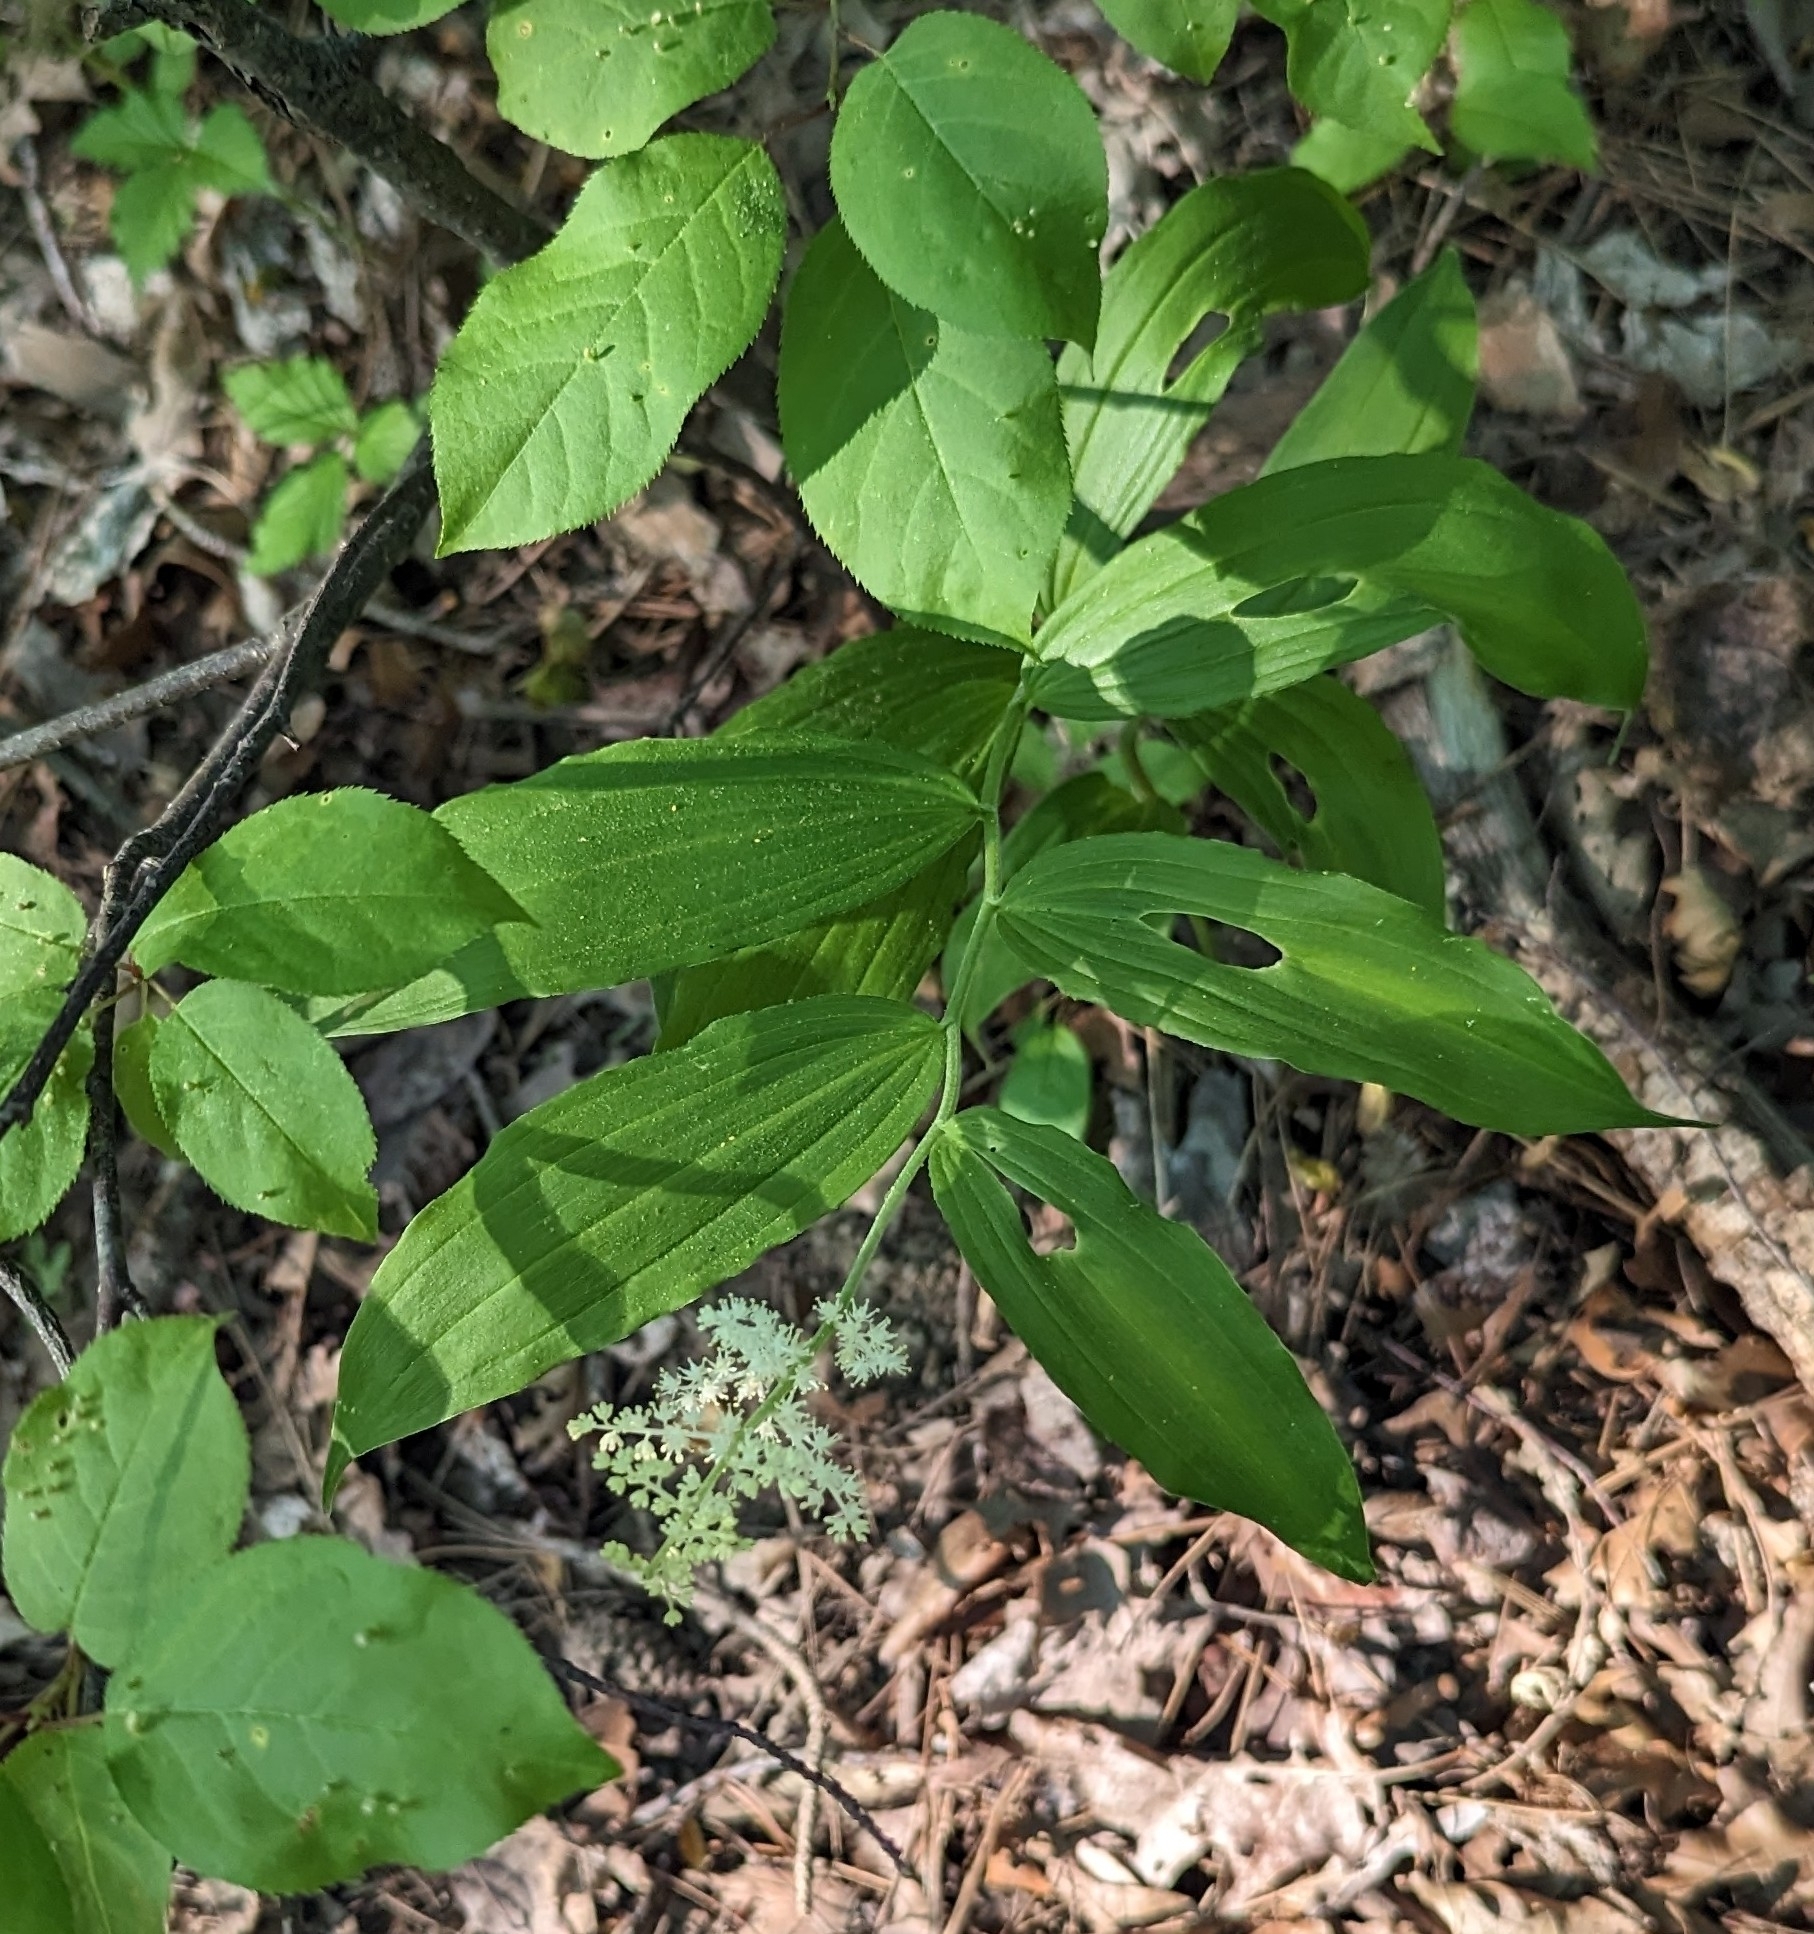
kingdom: Plantae
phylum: Tracheophyta
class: Liliopsida
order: Asparagales
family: Asparagaceae
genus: Maianthemum
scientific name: Maianthemum racemosum
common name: False spikenard
